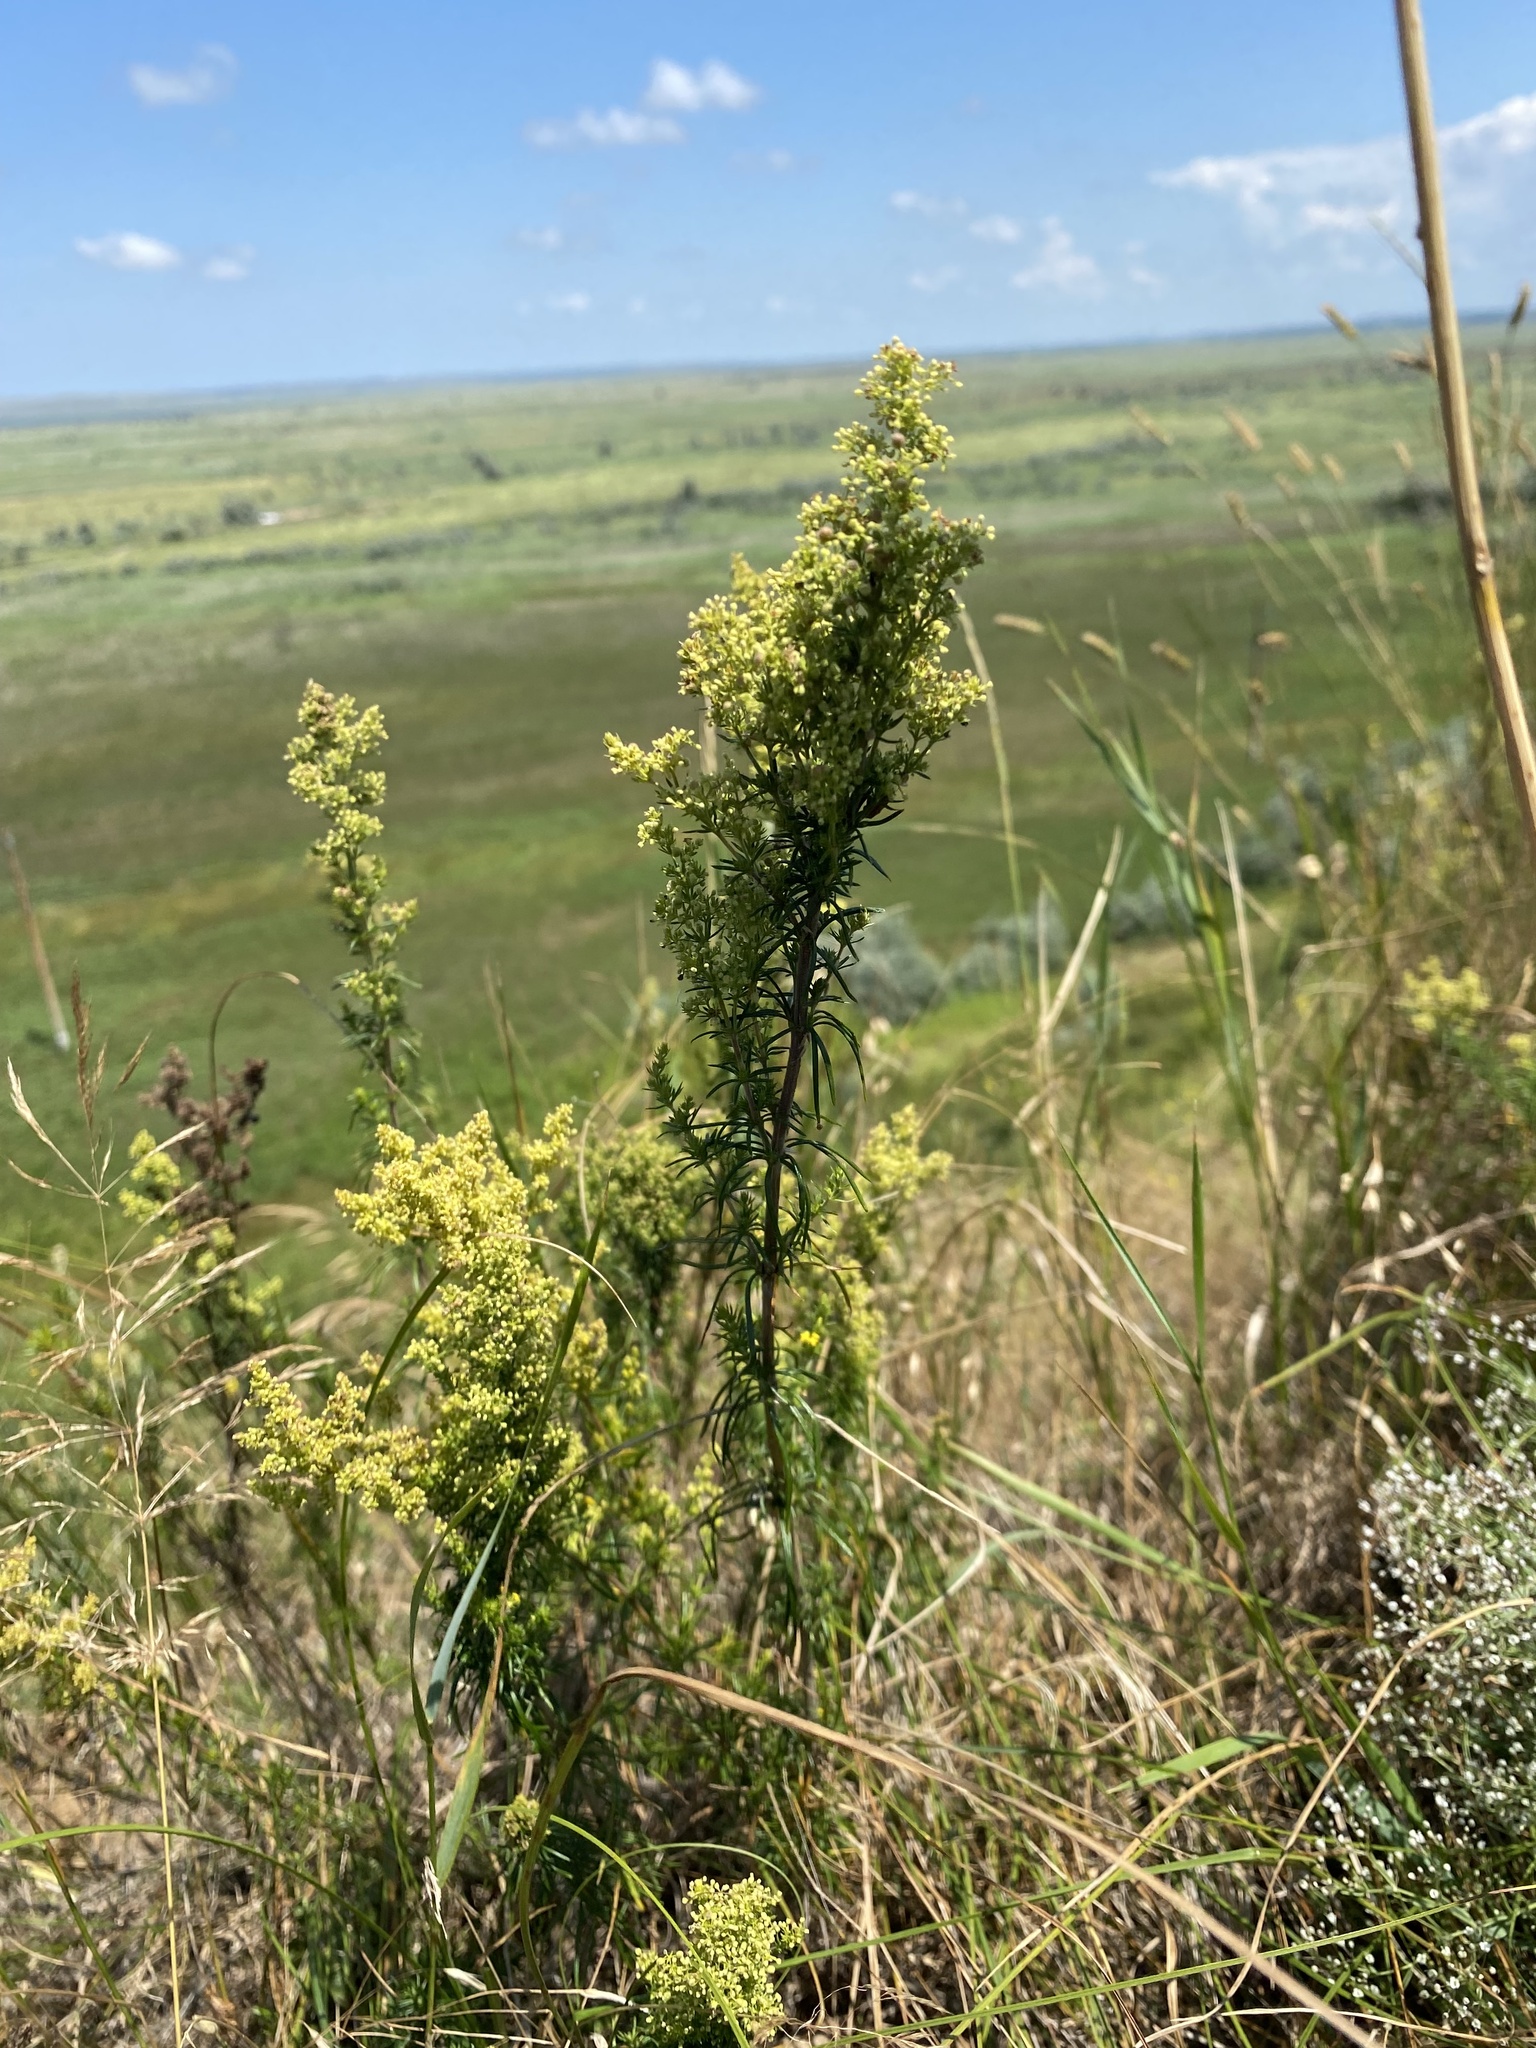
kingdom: Plantae
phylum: Tracheophyta
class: Magnoliopsida
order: Gentianales
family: Rubiaceae
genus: Galium
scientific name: Galium verum
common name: Lady's bedstraw
